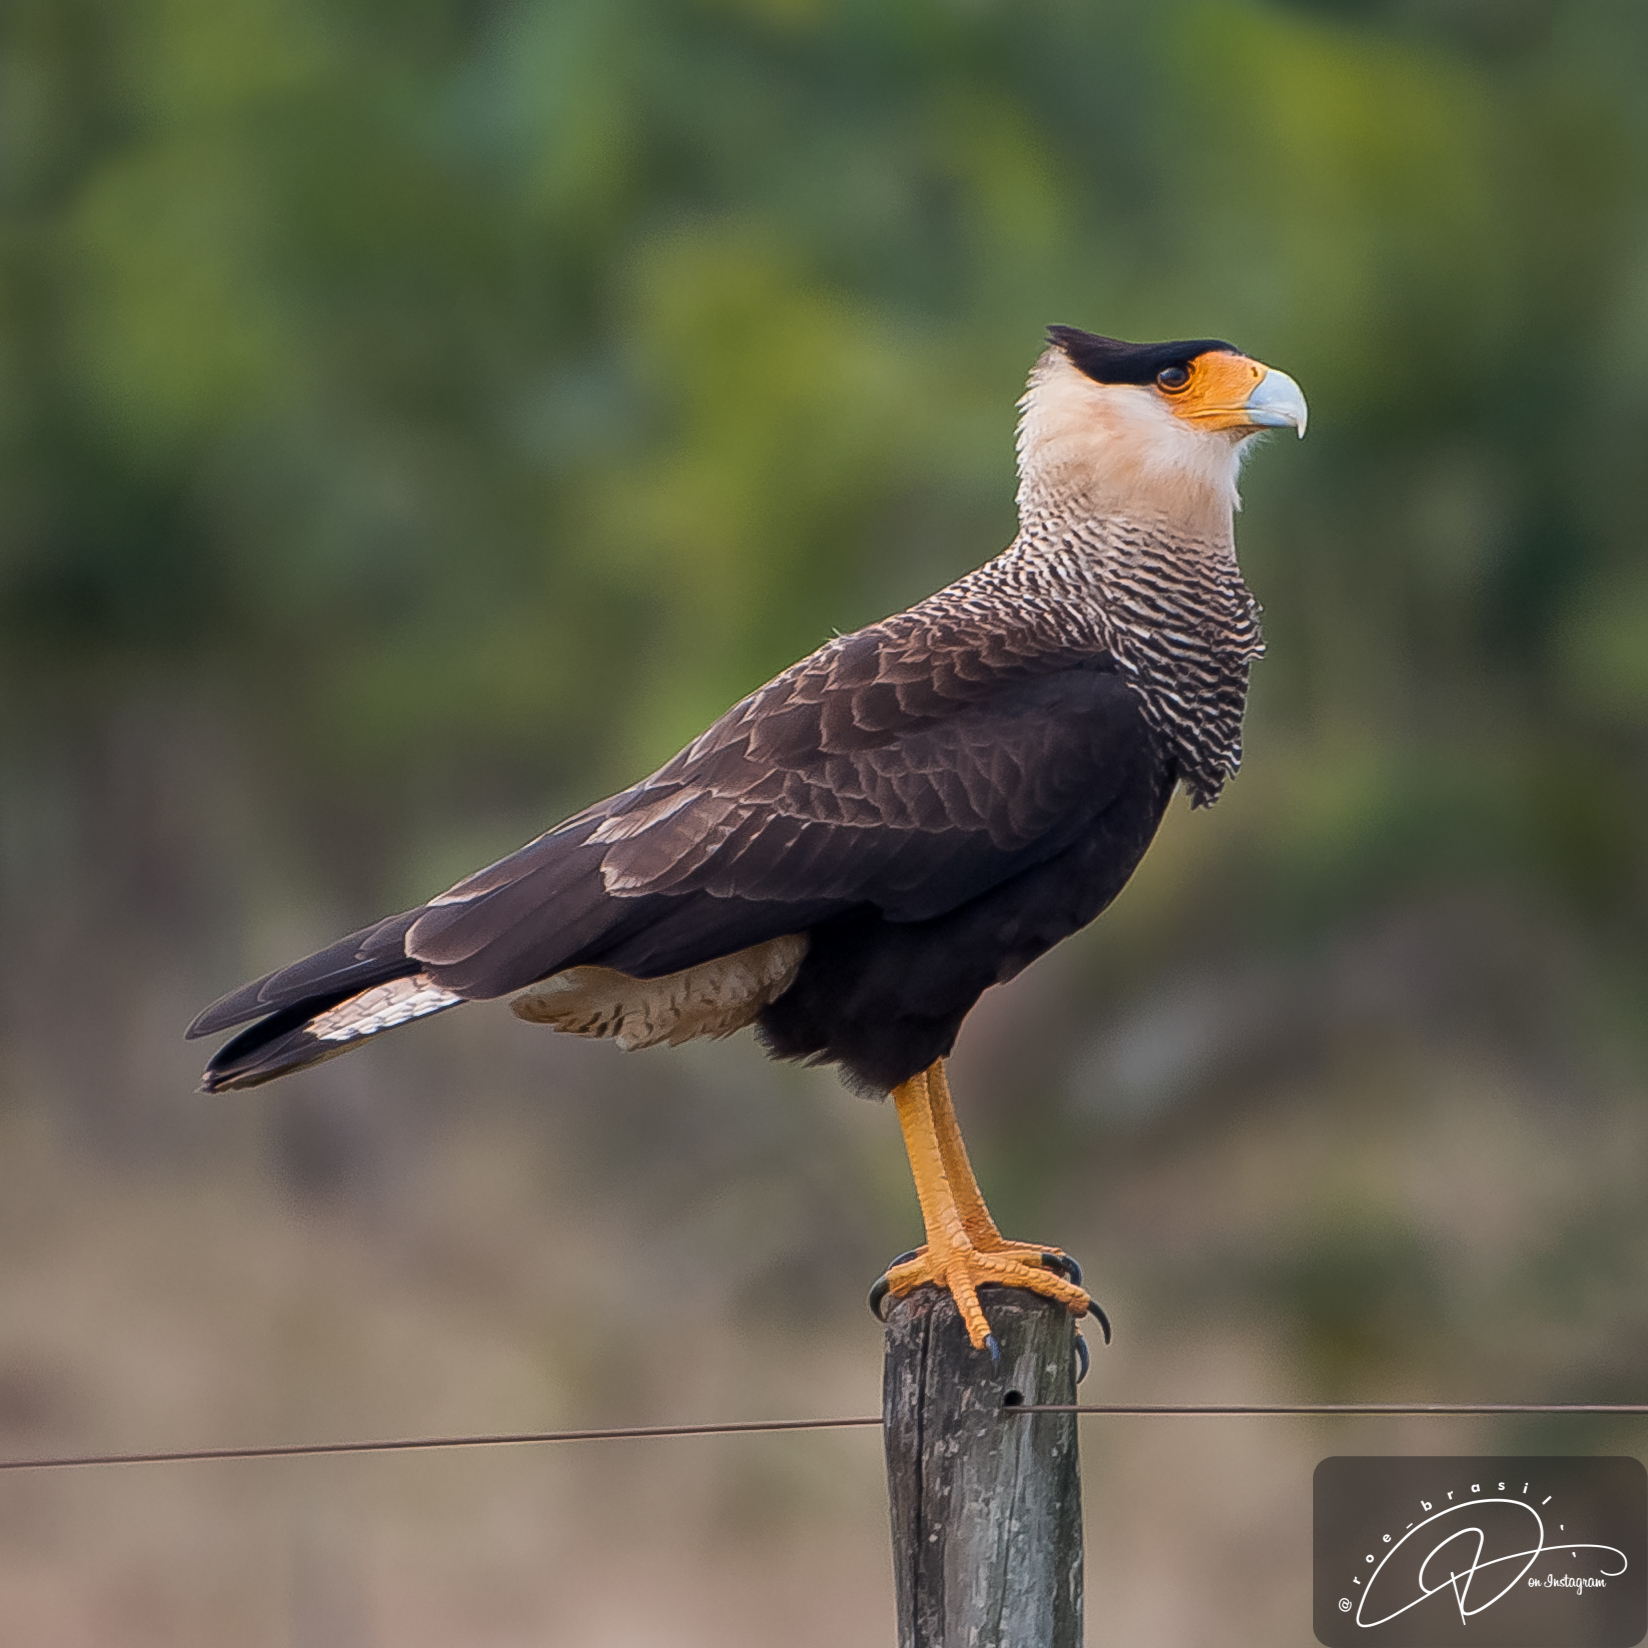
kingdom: Animalia
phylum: Chordata
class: Aves
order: Falconiformes
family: Falconidae
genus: Caracara
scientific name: Caracara plancus
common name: Southern caracara
